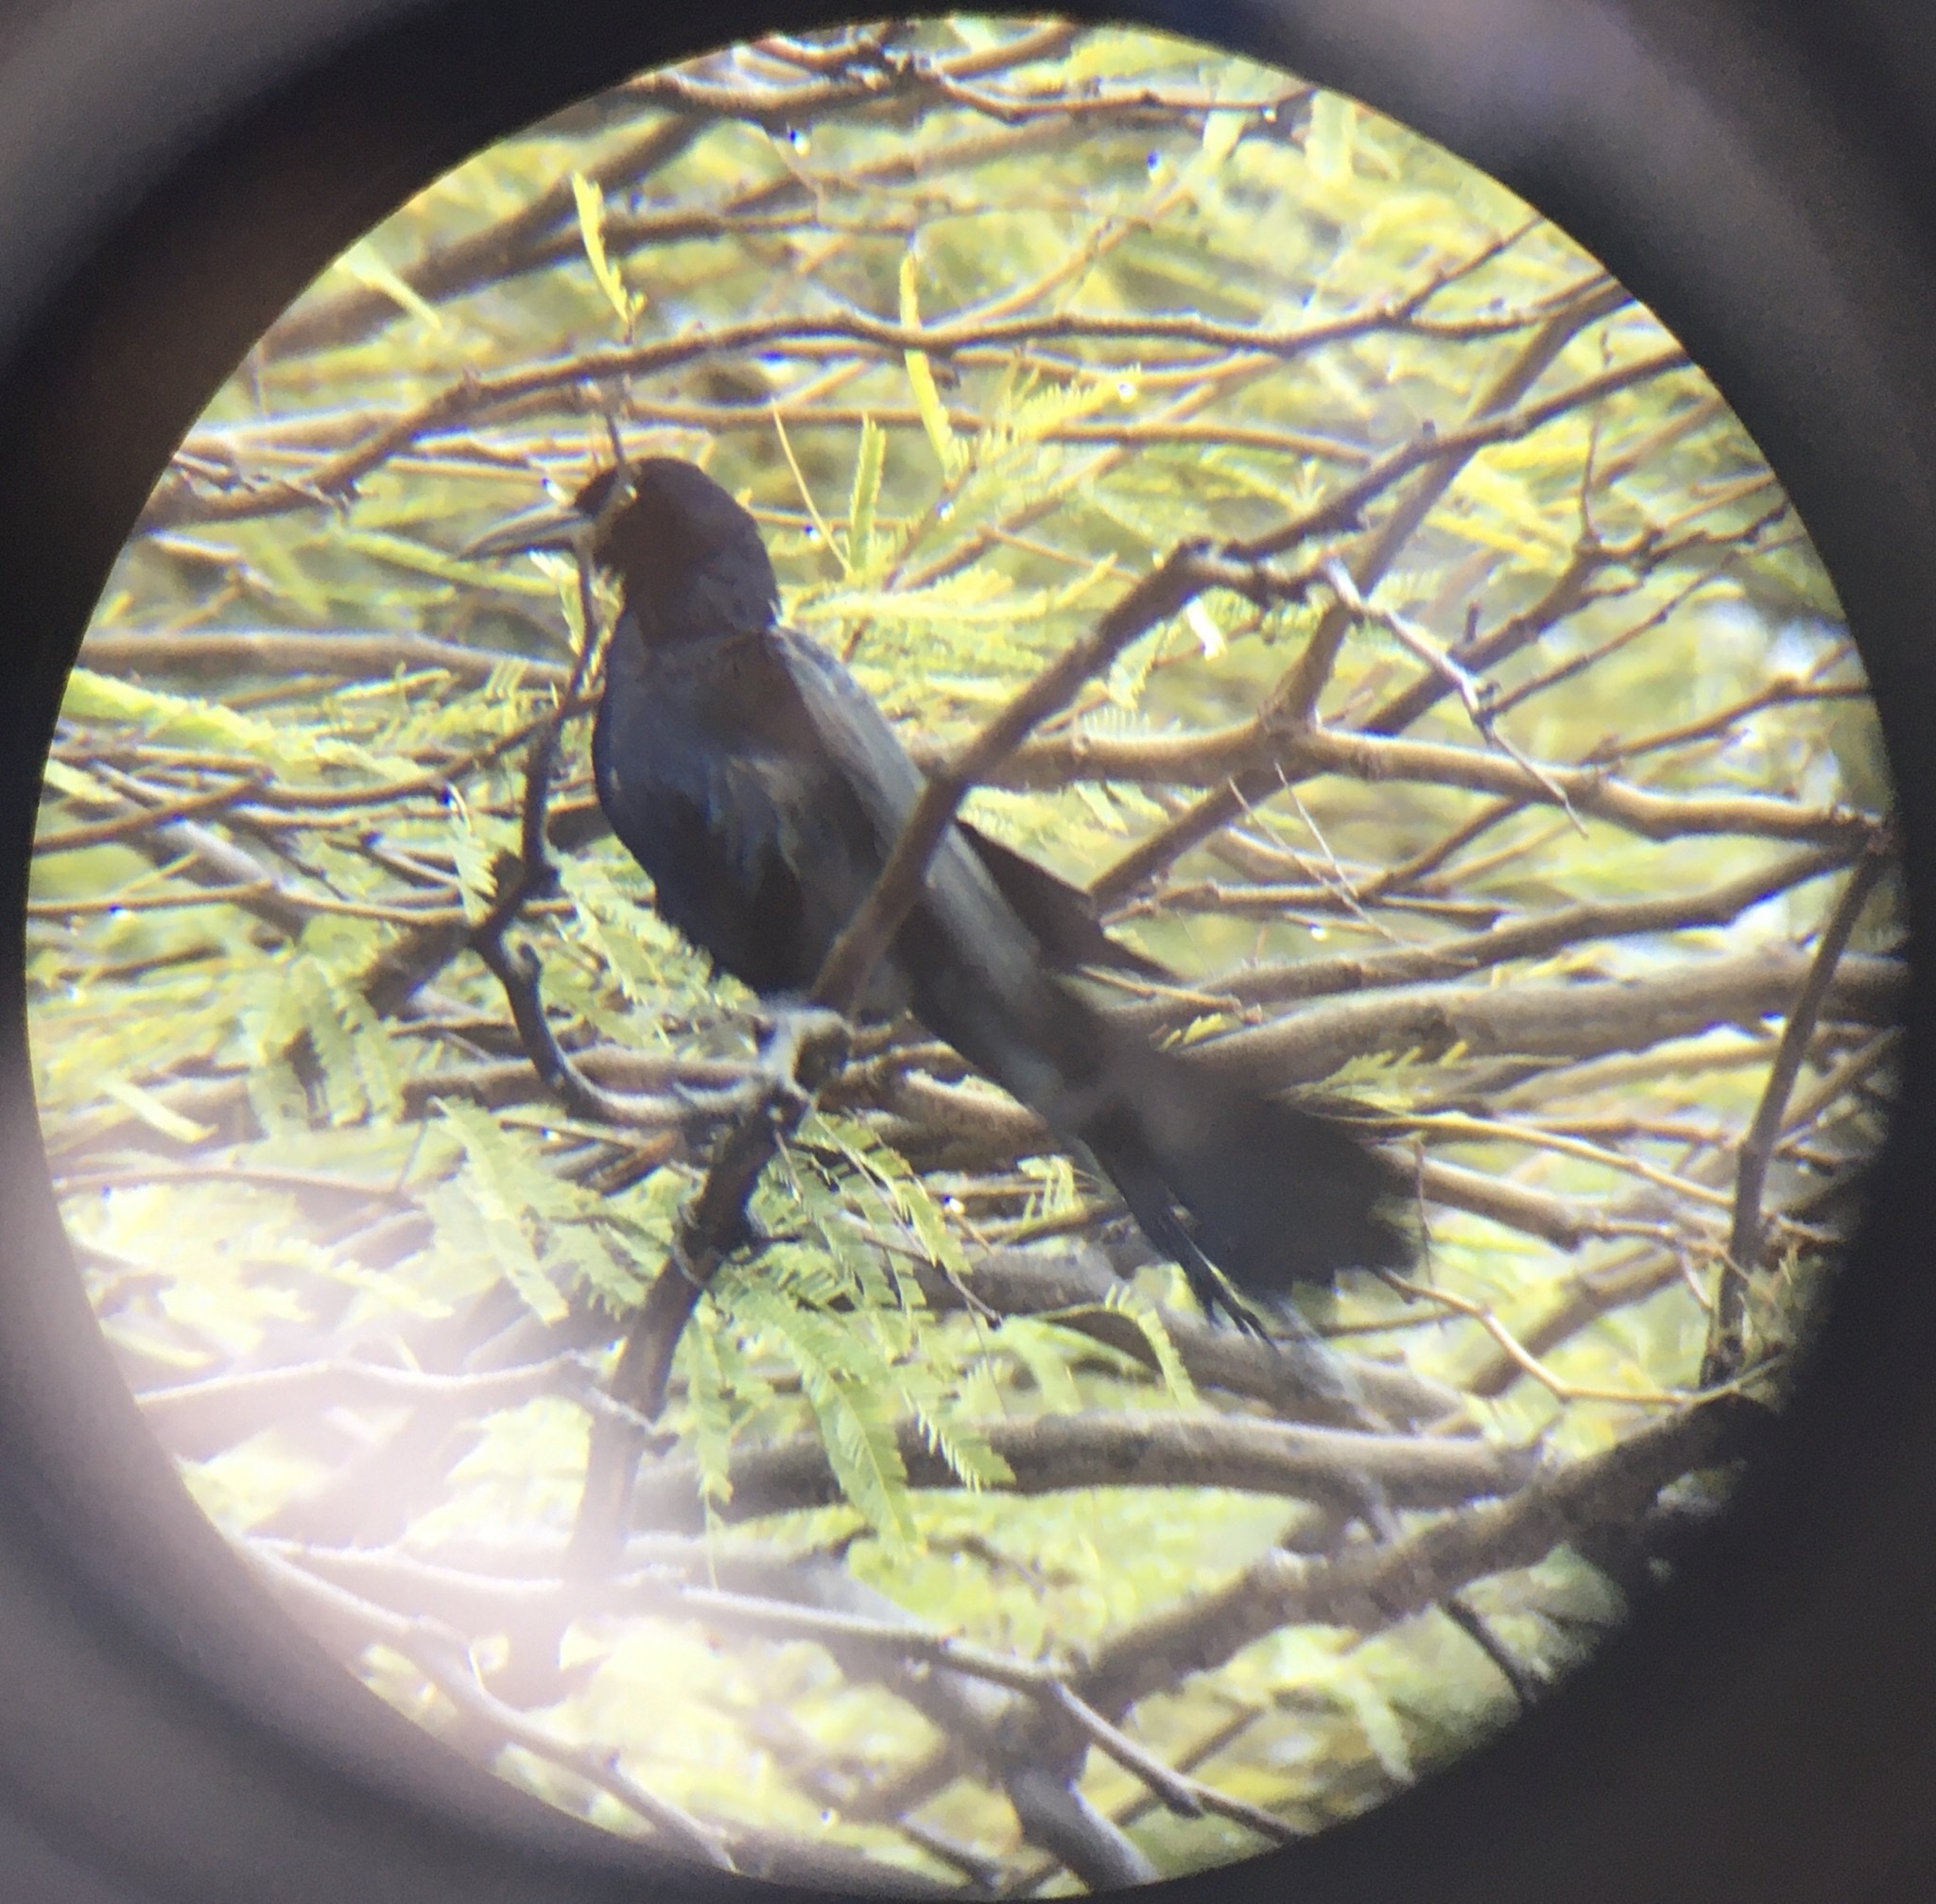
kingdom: Animalia
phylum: Chordata
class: Aves
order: Passeriformes
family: Icteridae
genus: Quiscalus
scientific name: Quiscalus mexicanus
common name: Great-tailed grackle
